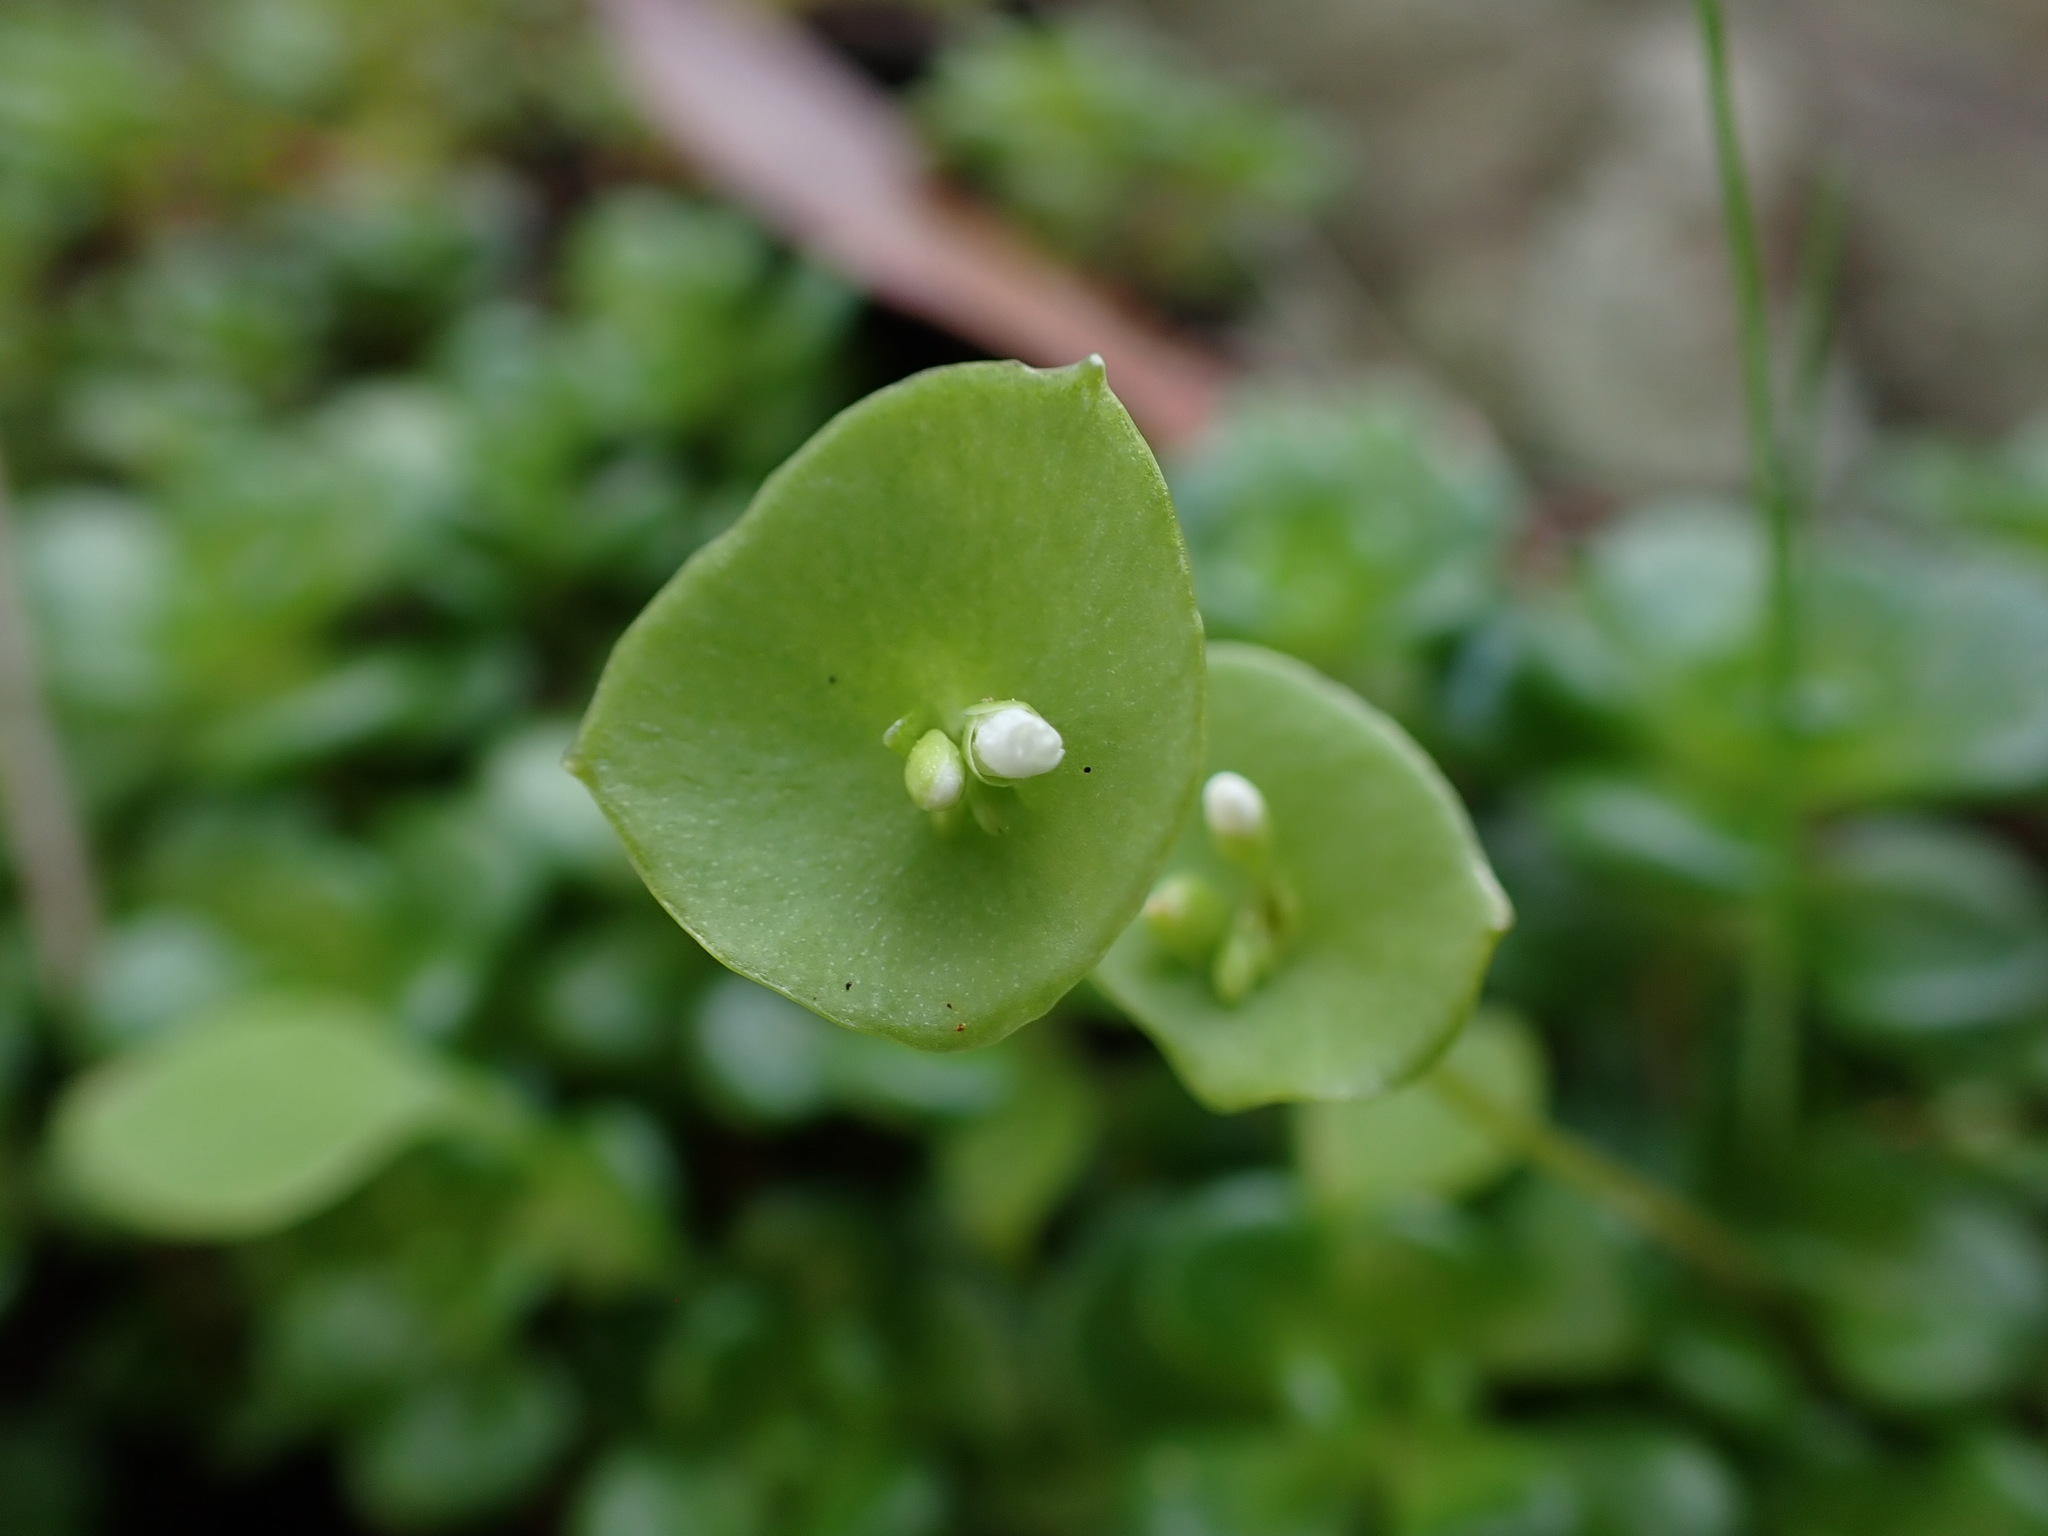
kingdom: Plantae
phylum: Tracheophyta
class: Magnoliopsida
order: Caryophyllales
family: Montiaceae
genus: Claytonia
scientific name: Claytonia perfoliata
